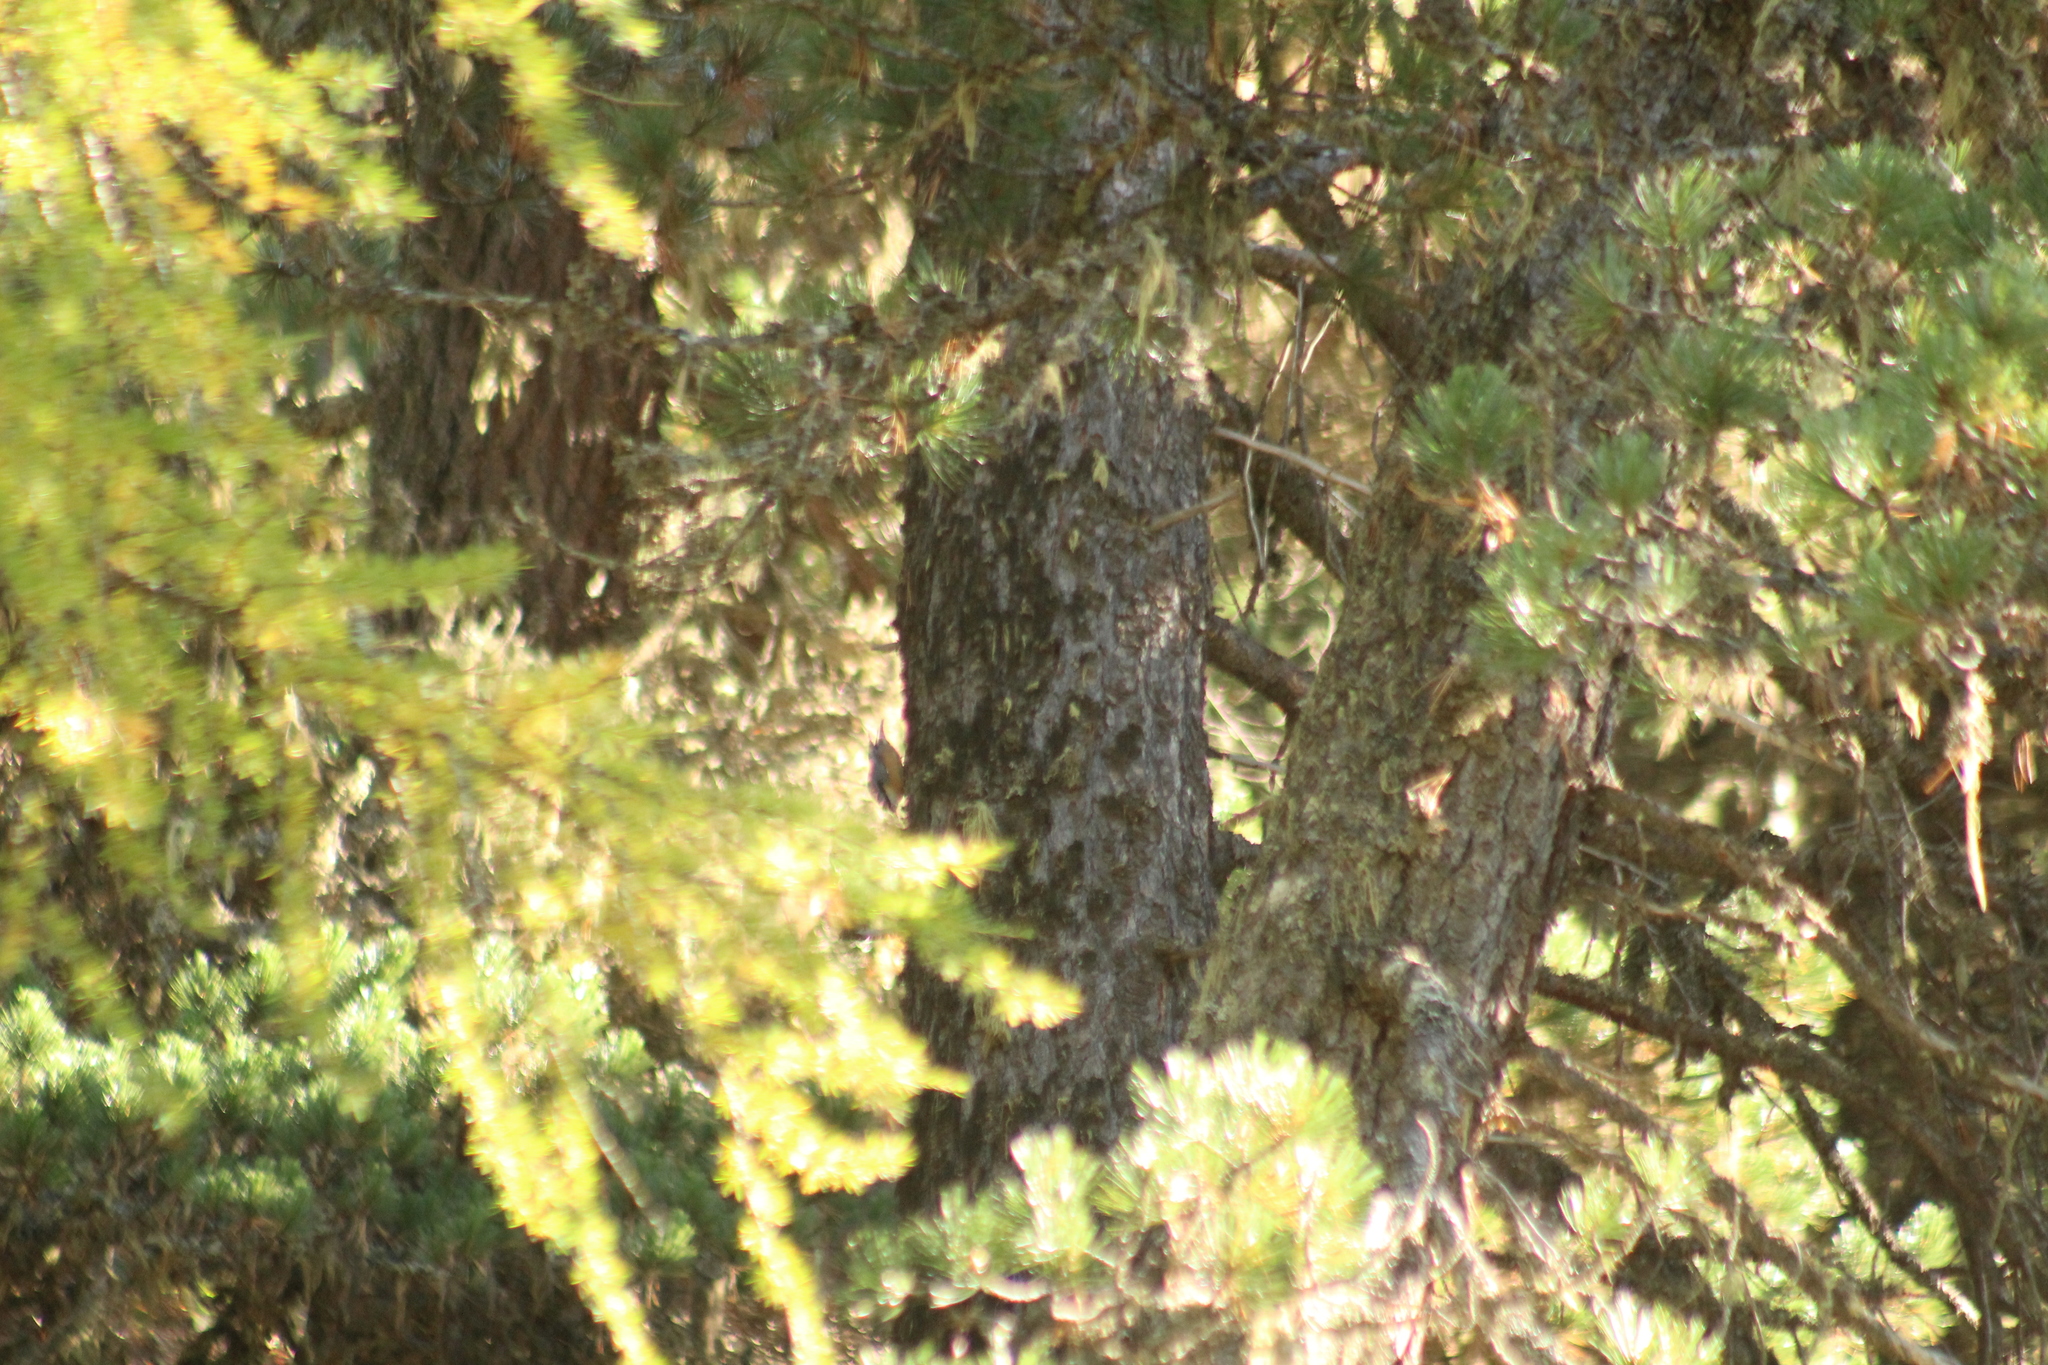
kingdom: Animalia
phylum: Chordata
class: Aves
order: Passeriformes
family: Sittidae
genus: Sitta
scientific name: Sitta europaea
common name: Eurasian nuthatch
